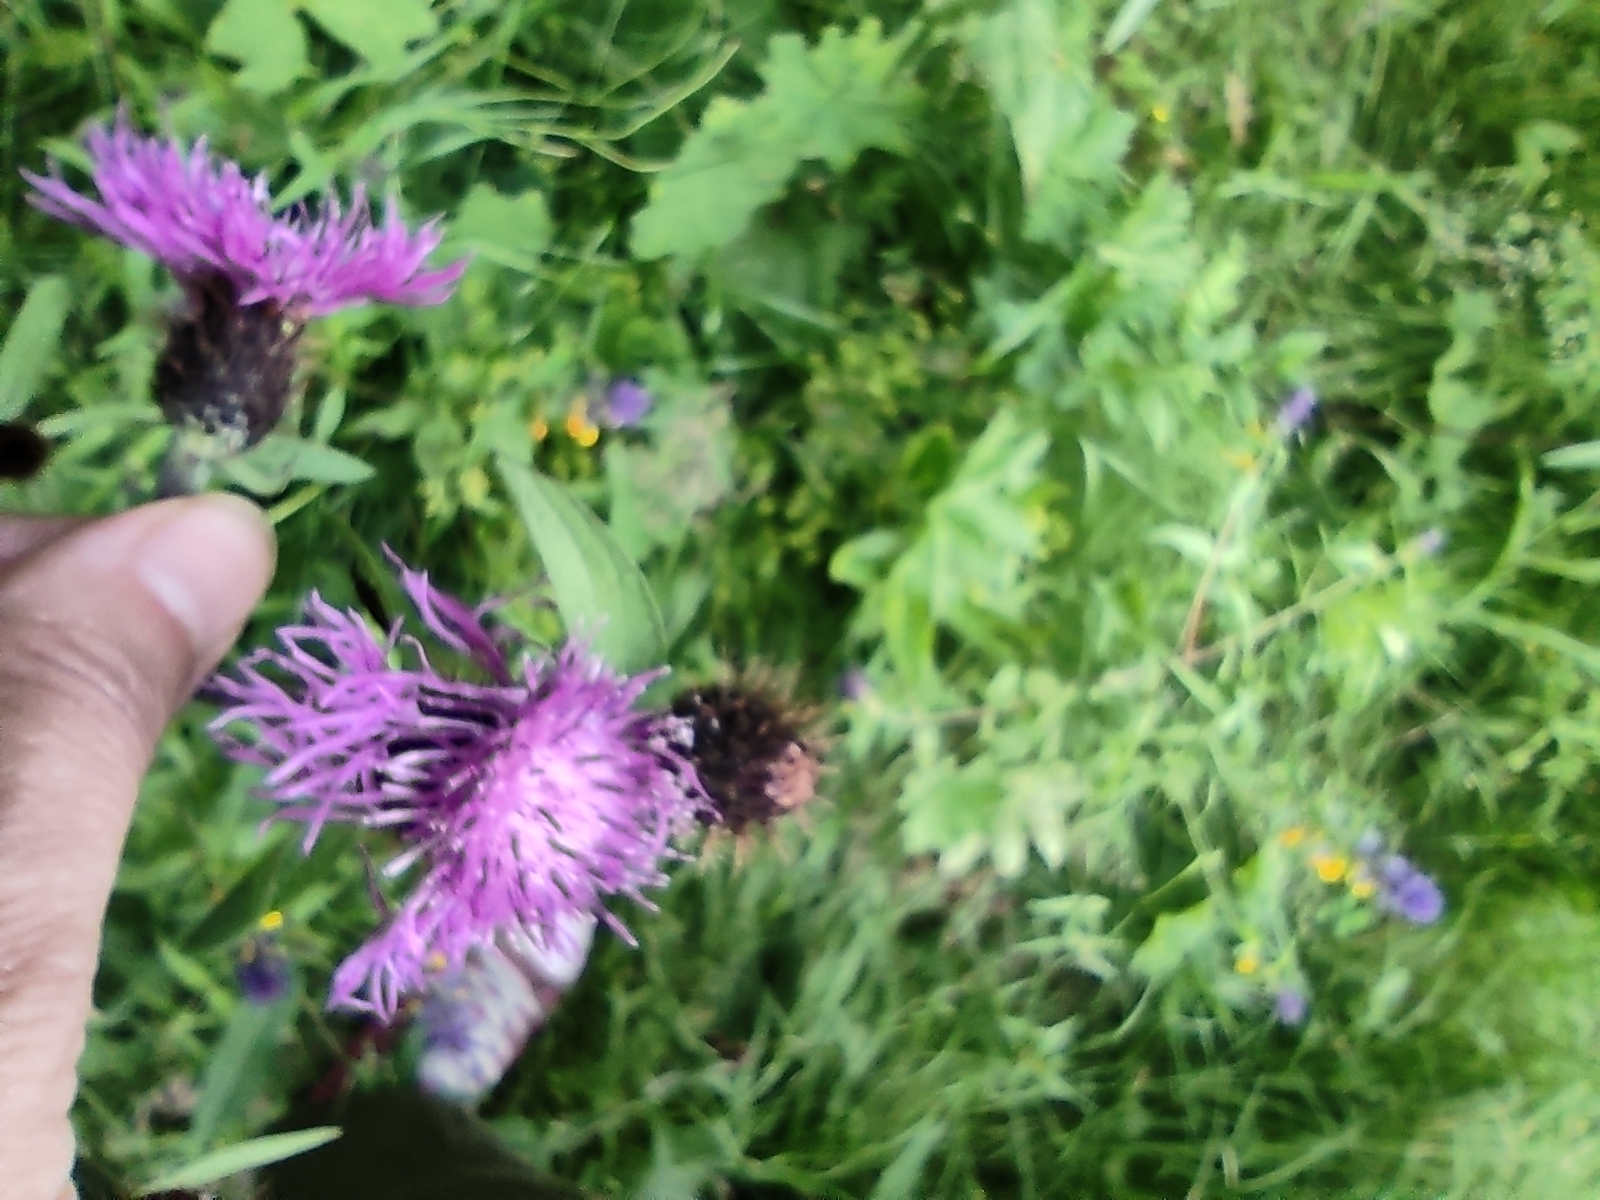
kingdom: Plantae
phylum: Tracheophyta
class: Magnoliopsida
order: Asterales
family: Asteraceae
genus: Centaurea
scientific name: Centaurea phrygia
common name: Wig knapweed
